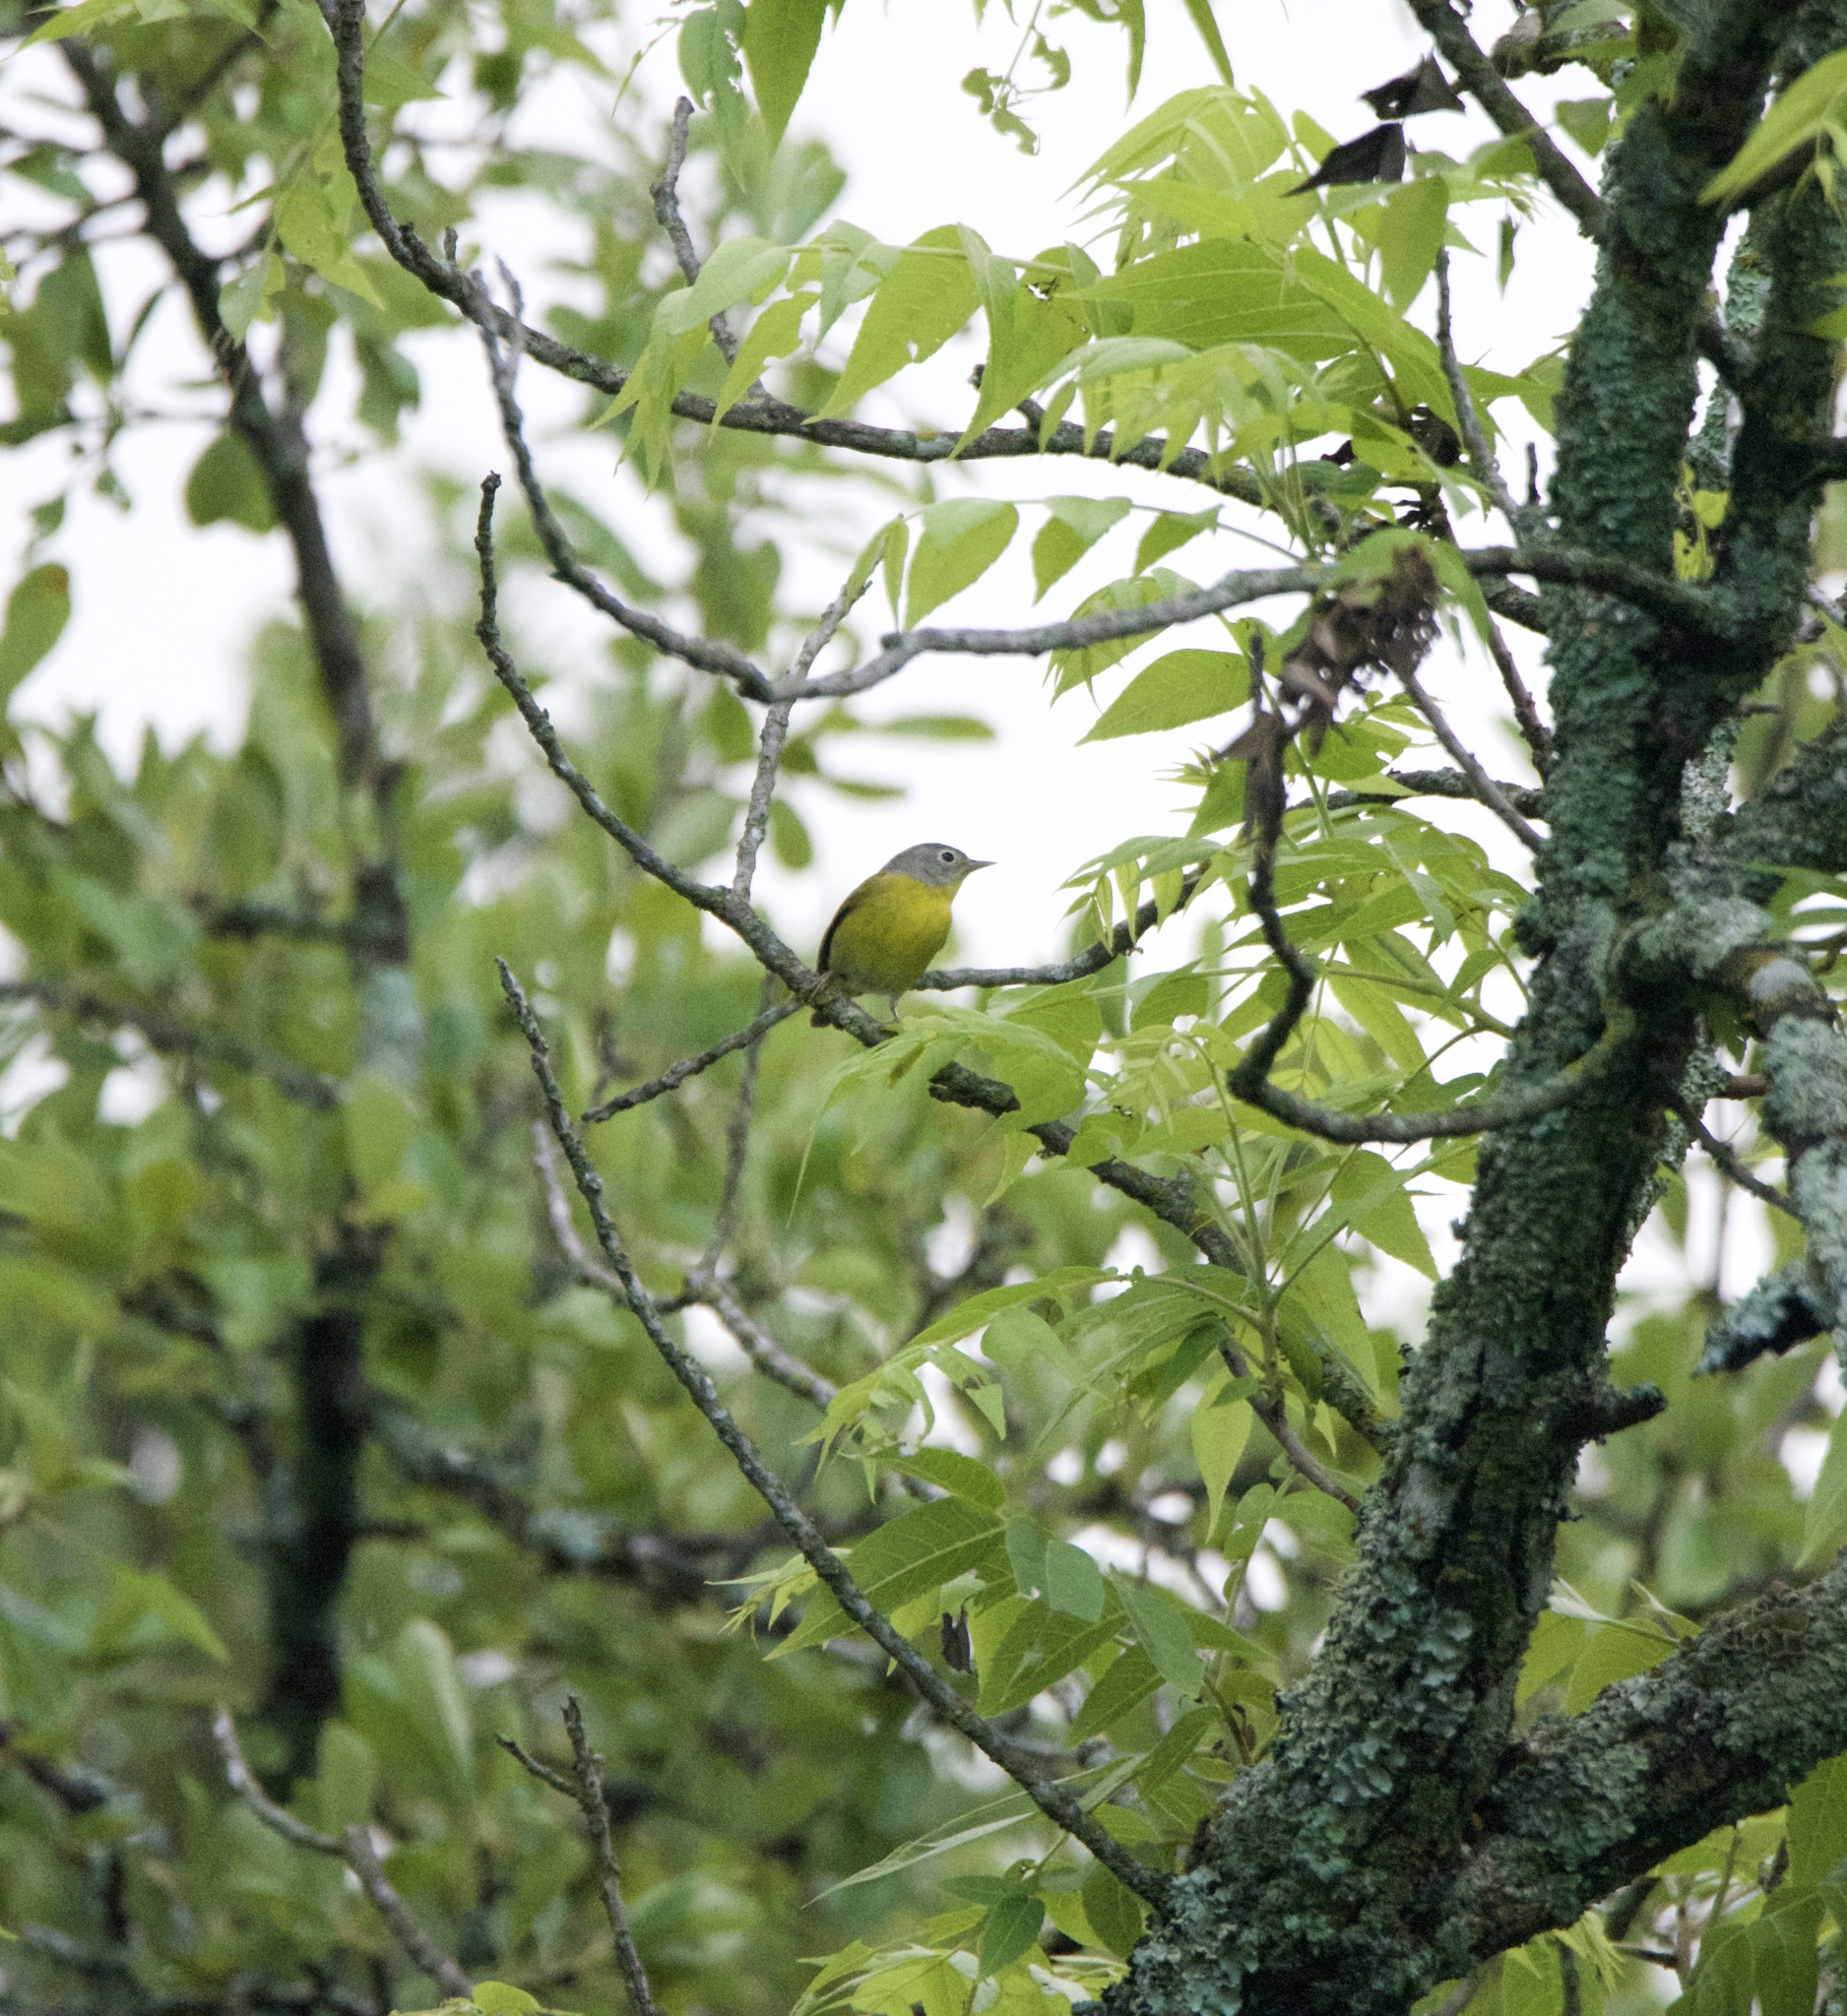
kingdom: Animalia
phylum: Chordata
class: Aves
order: Passeriformes
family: Parulidae
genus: Leiothlypis
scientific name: Leiothlypis ruficapilla
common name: Nashville warbler
